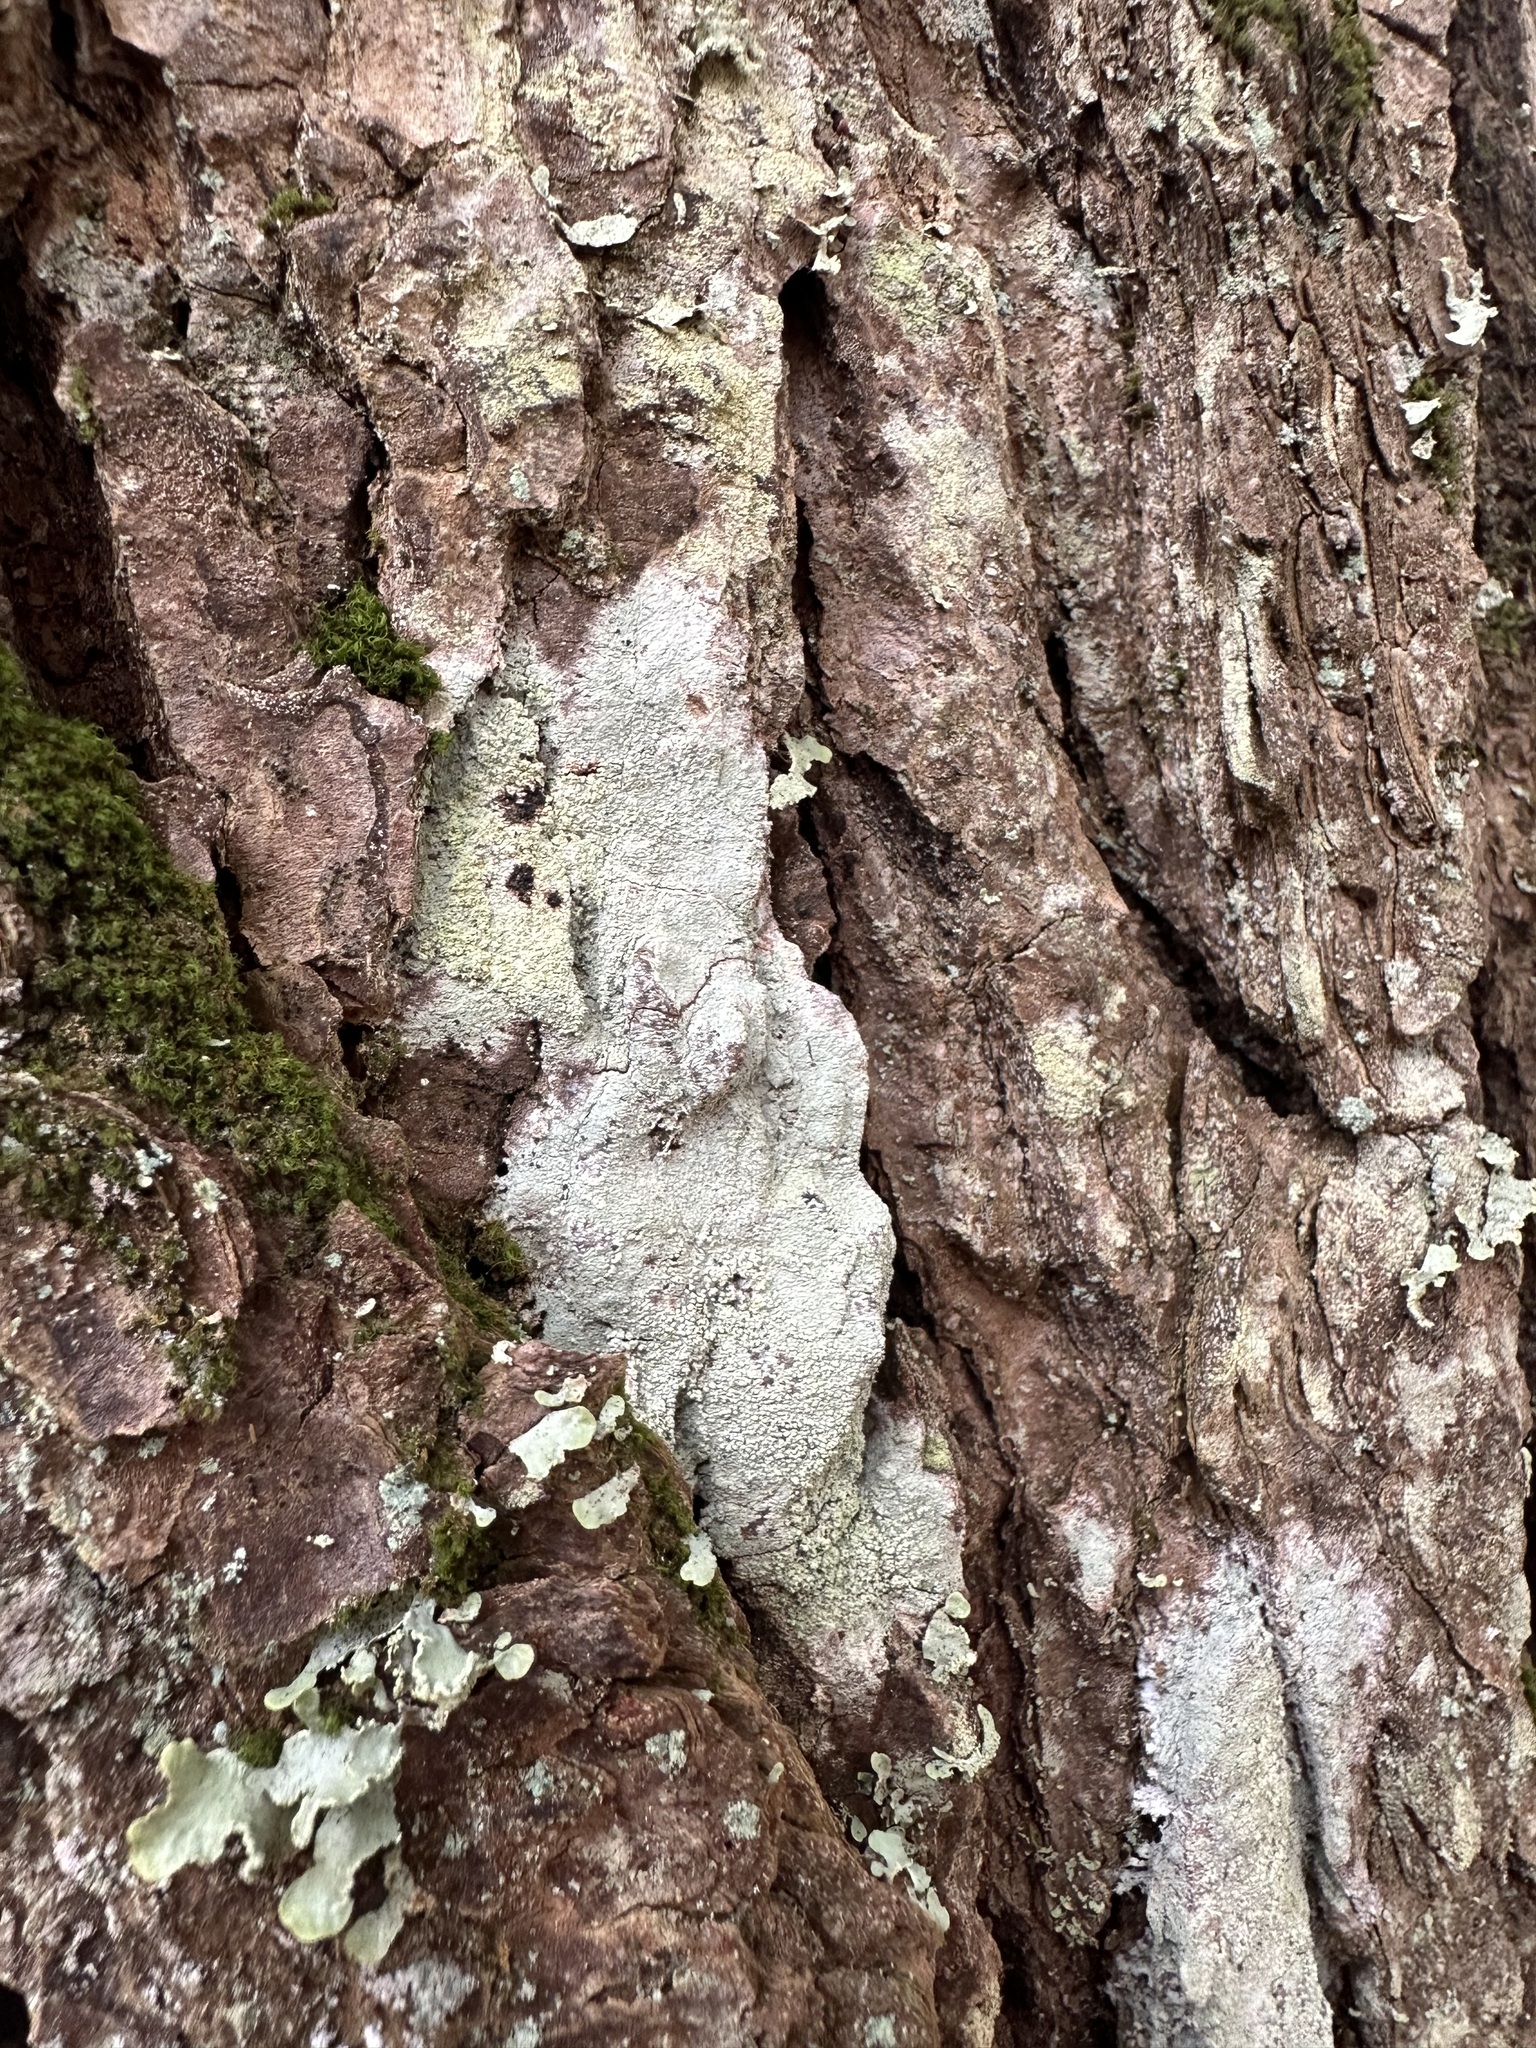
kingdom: Fungi
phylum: Ascomycota
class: Lecanoromycetes
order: Pertusariales
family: Pertusariaceae
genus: Lepra
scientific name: Lepra amara
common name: Bitter wart lichen
